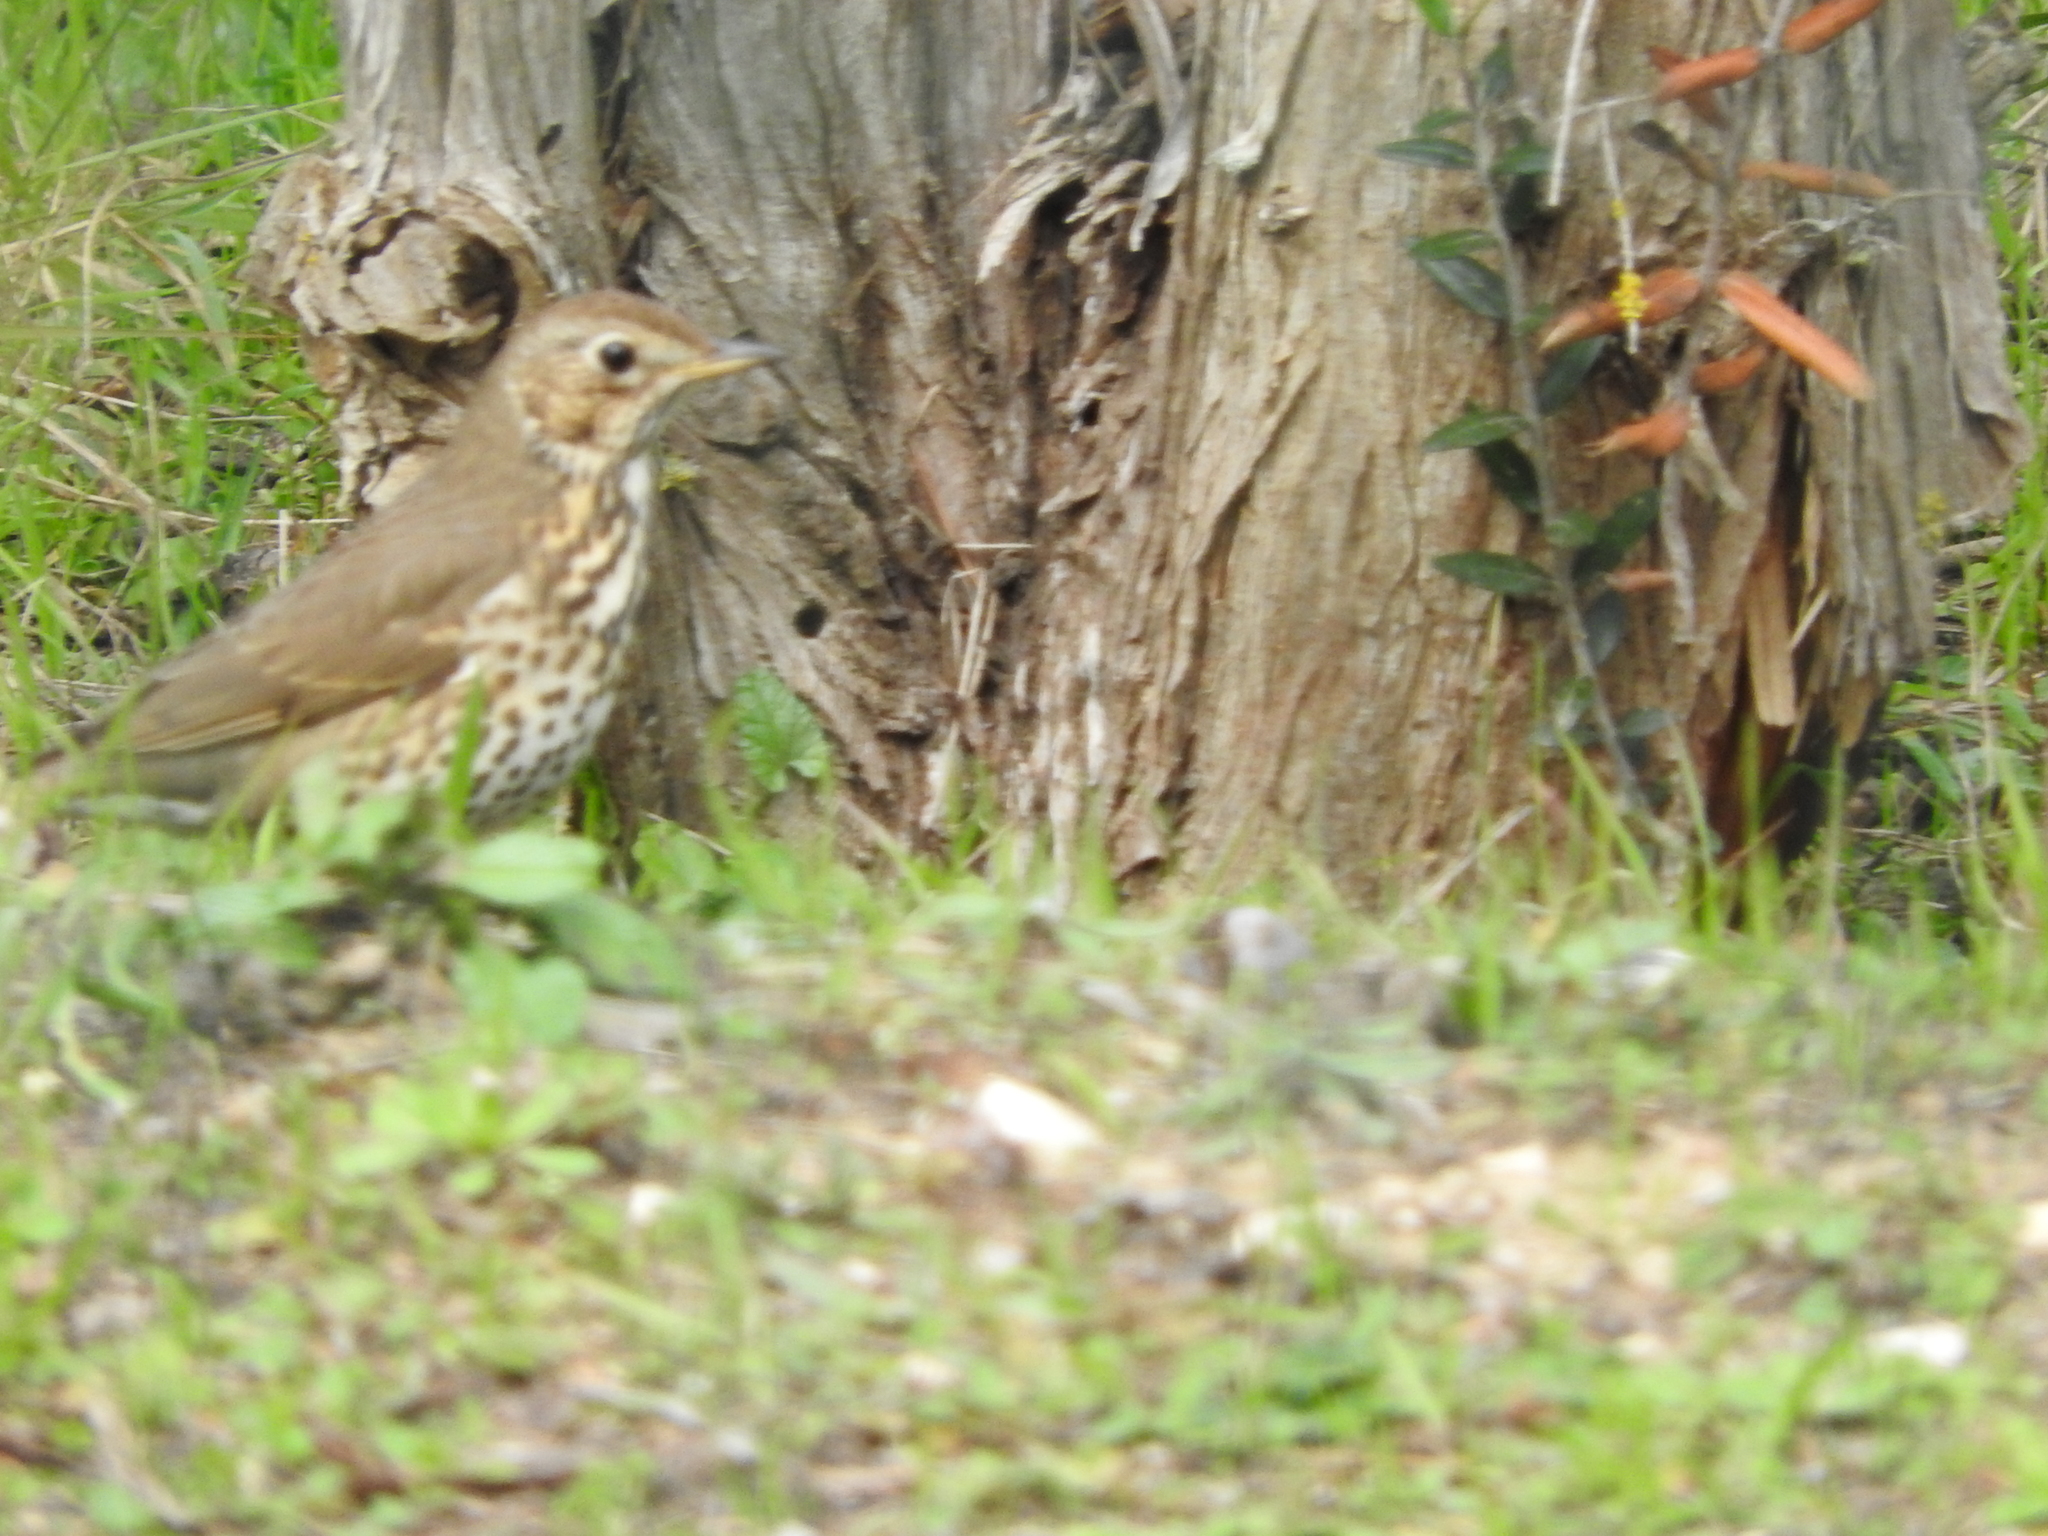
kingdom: Animalia
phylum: Chordata
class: Aves
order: Passeriformes
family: Turdidae
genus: Turdus
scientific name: Turdus philomelos
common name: Song thrush
